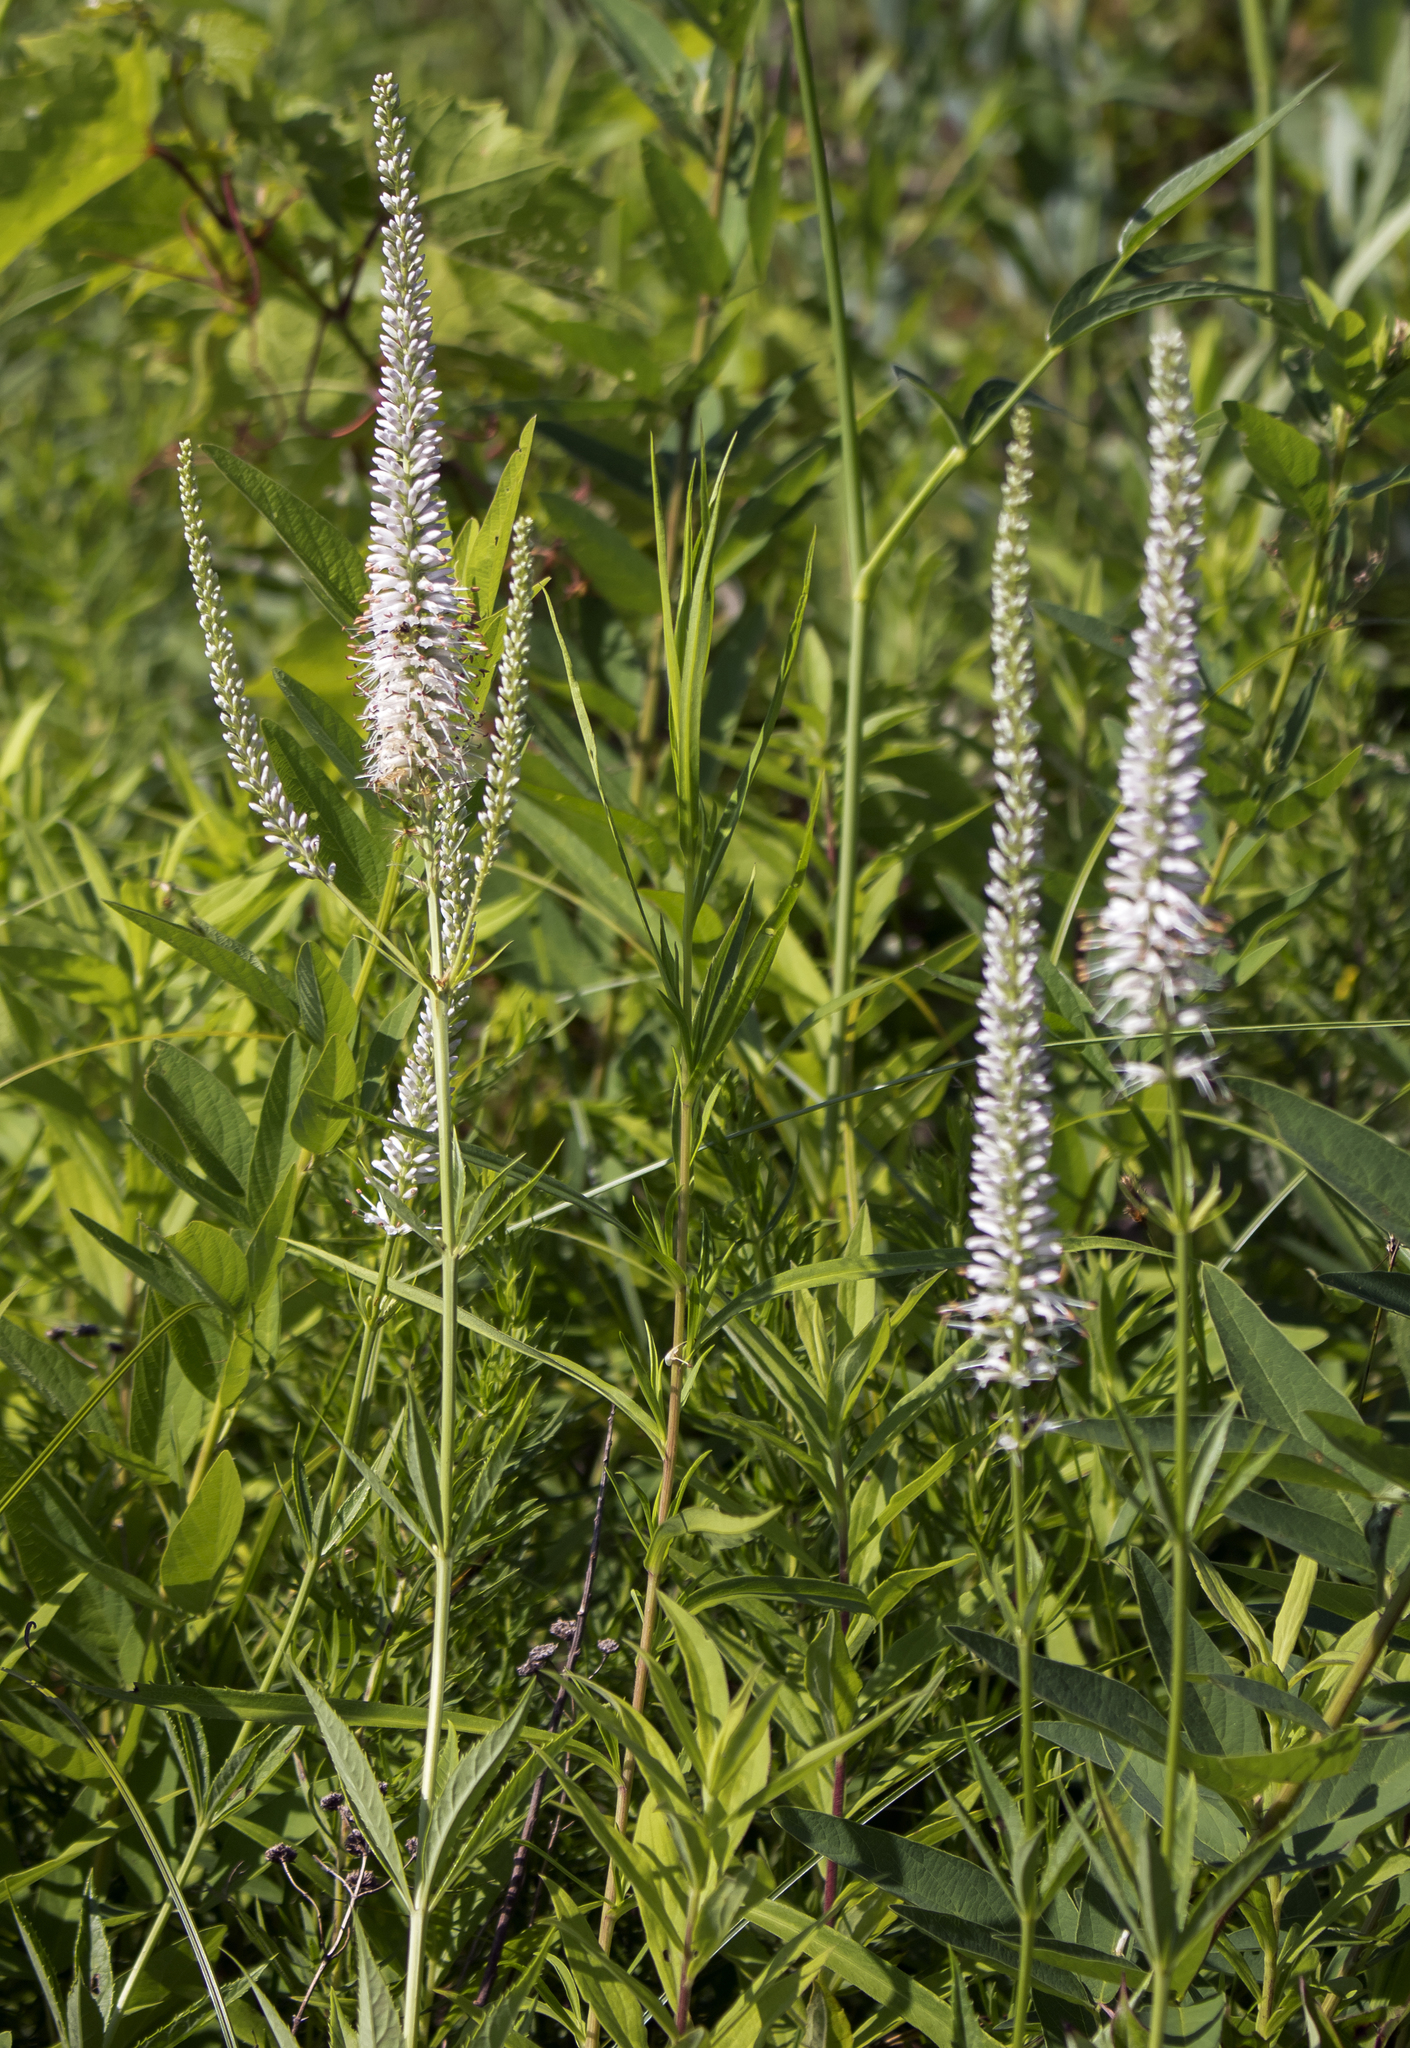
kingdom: Plantae
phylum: Tracheophyta
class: Magnoliopsida
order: Lamiales
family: Plantaginaceae
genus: Veronicastrum
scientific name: Veronicastrum virginicum
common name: Blackroot
